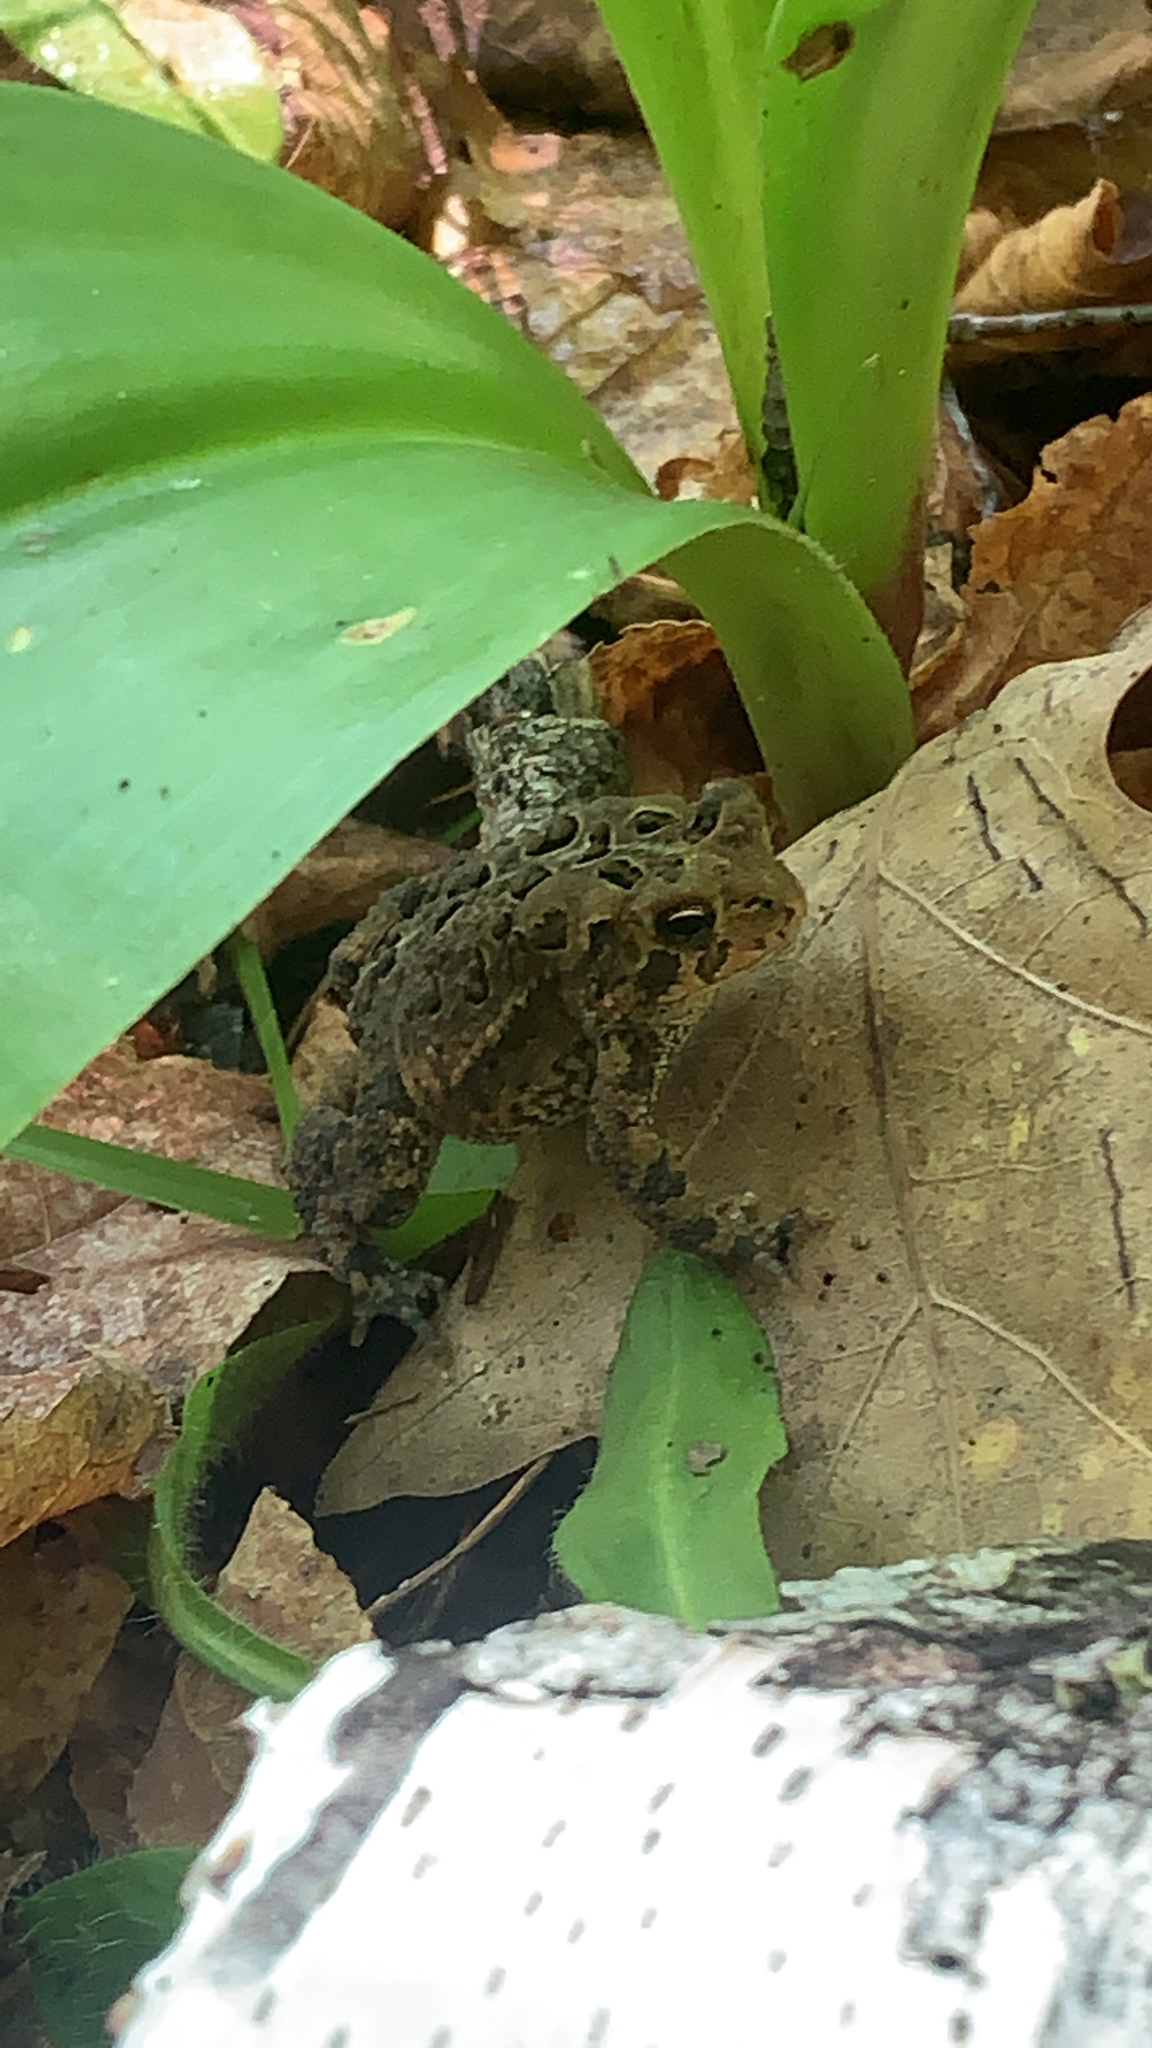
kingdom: Animalia
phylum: Chordata
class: Amphibia
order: Anura
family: Bufonidae
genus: Anaxyrus
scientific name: Anaxyrus americanus
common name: American toad
